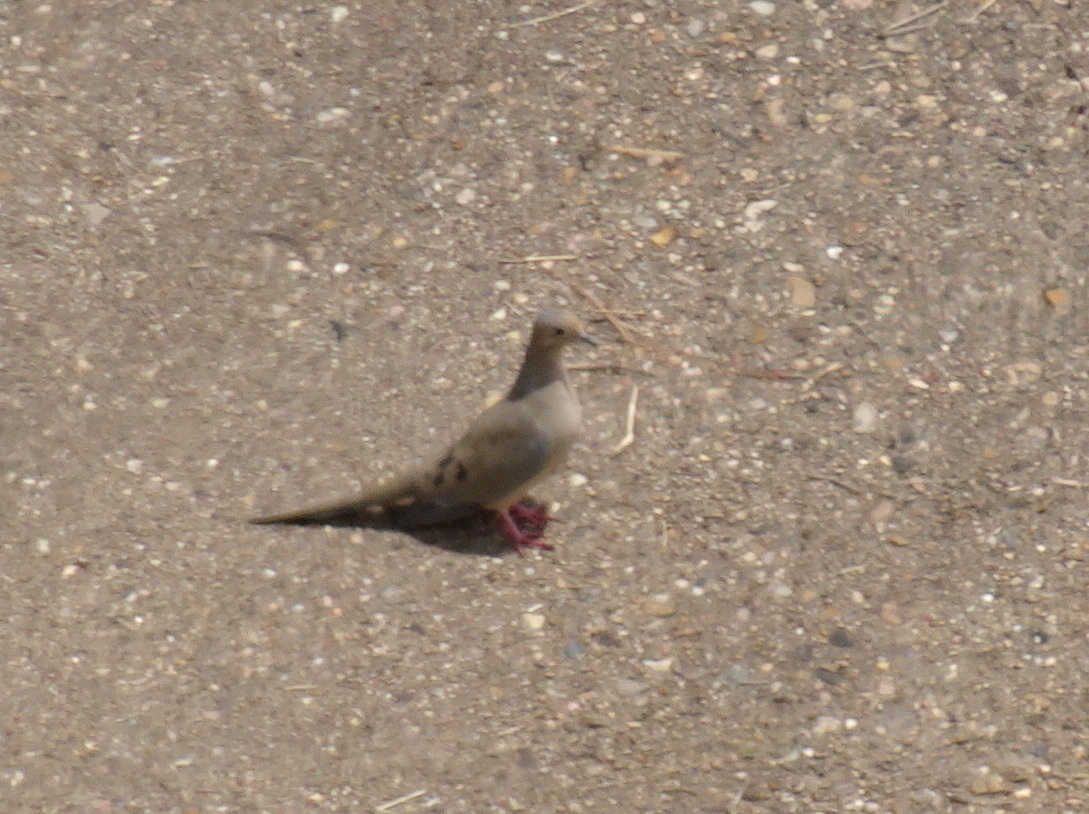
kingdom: Animalia
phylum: Chordata
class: Aves
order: Columbiformes
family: Columbidae
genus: Zenaida
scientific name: Zenaida macroura
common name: Mourning dove
